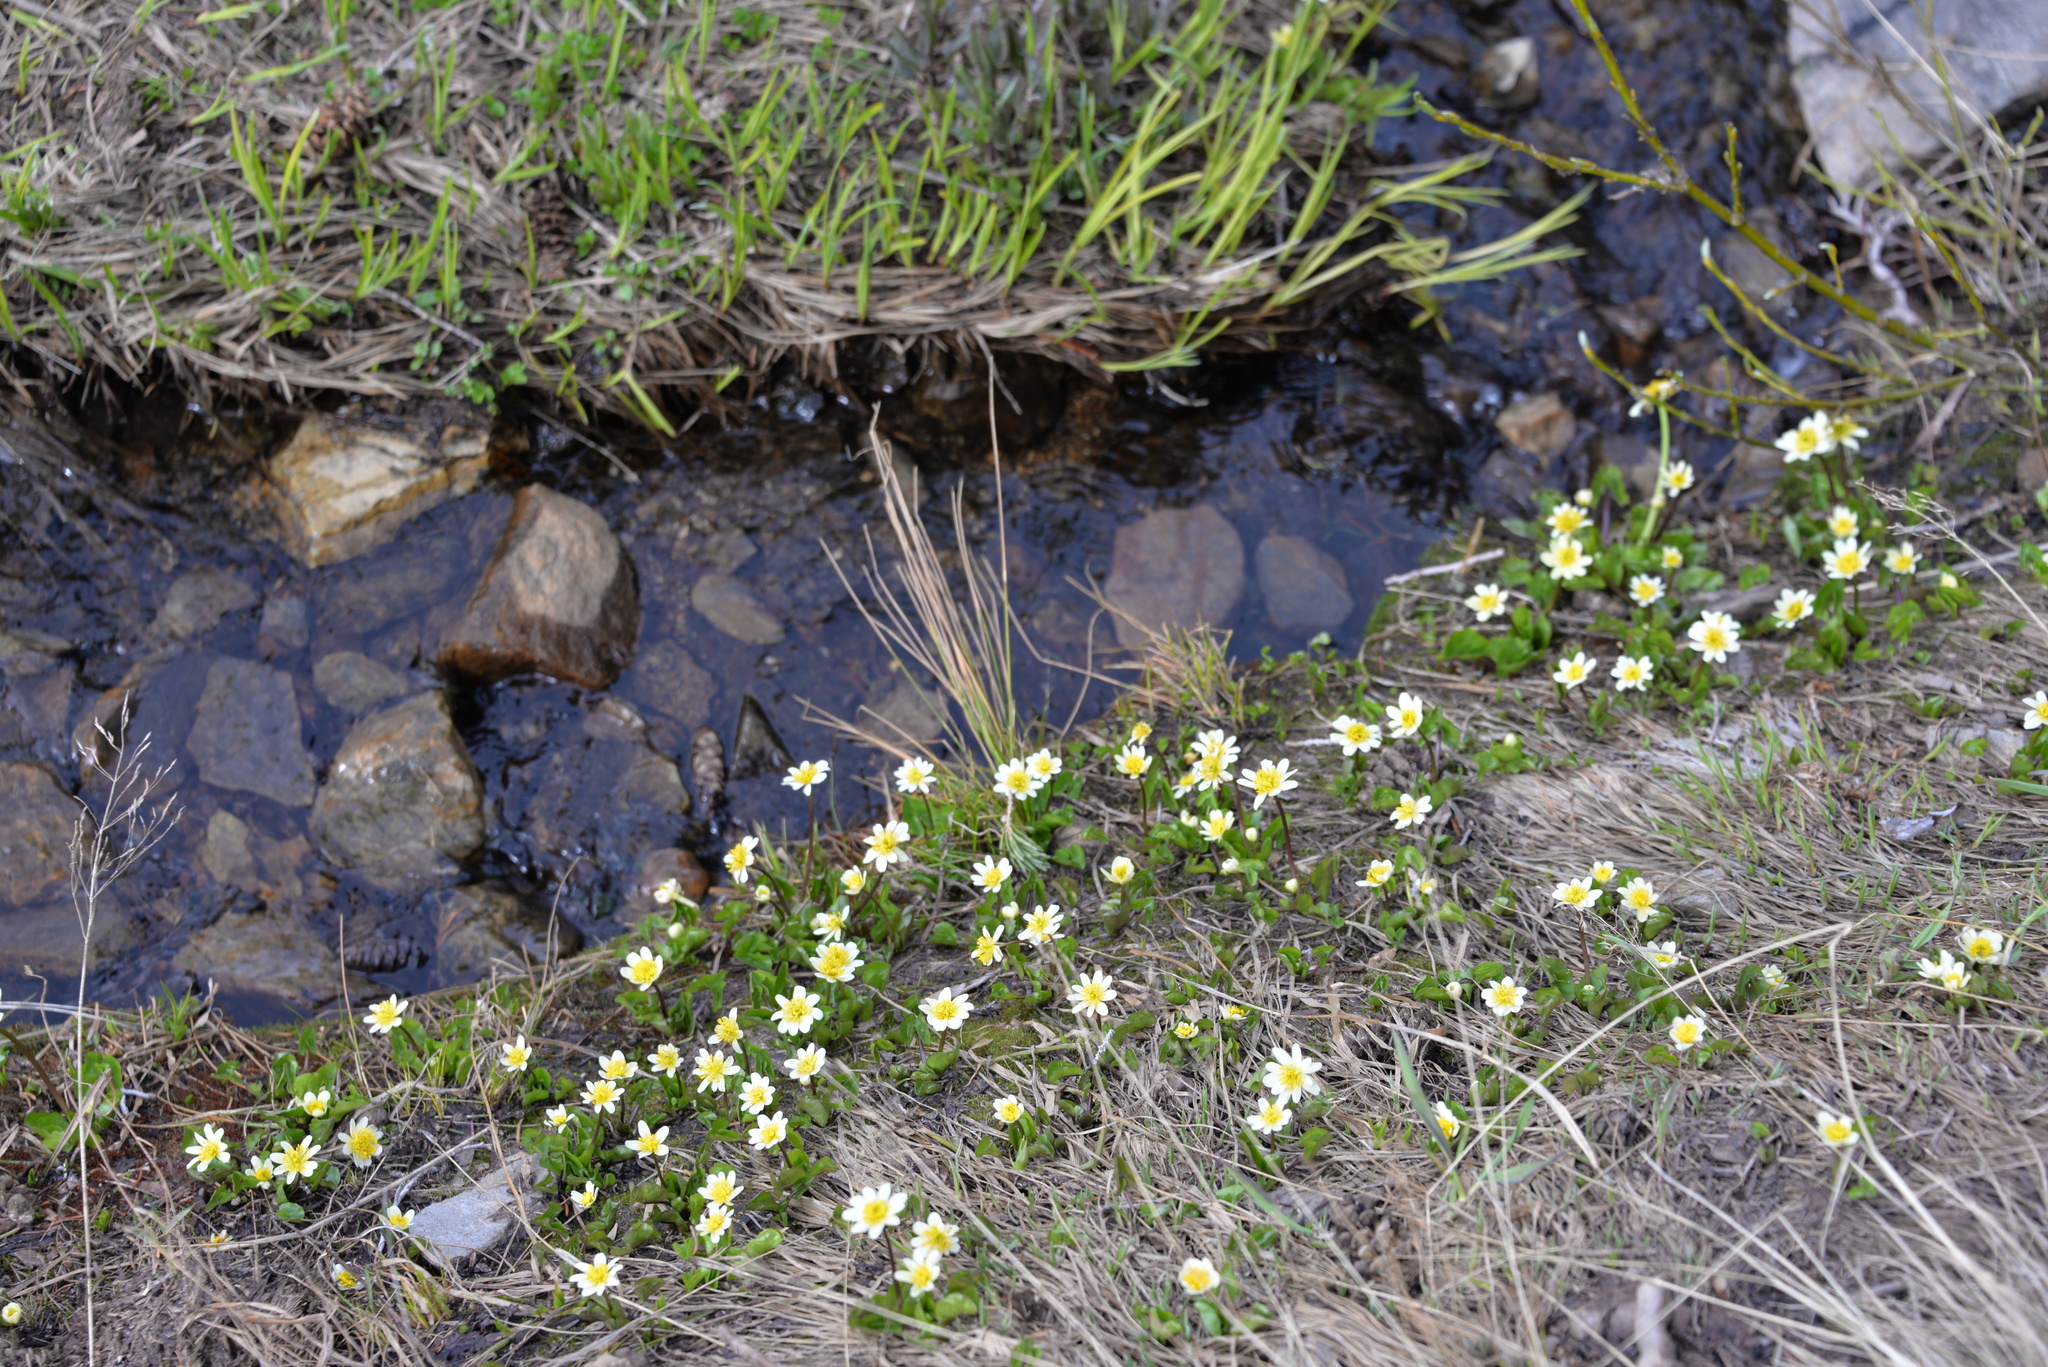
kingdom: Plantae
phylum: Tracheophyta
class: Magnoliopsida
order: Ranunculales
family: Ranunculaceae
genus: Caltha
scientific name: Caltha leptosepala
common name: Elkslip
